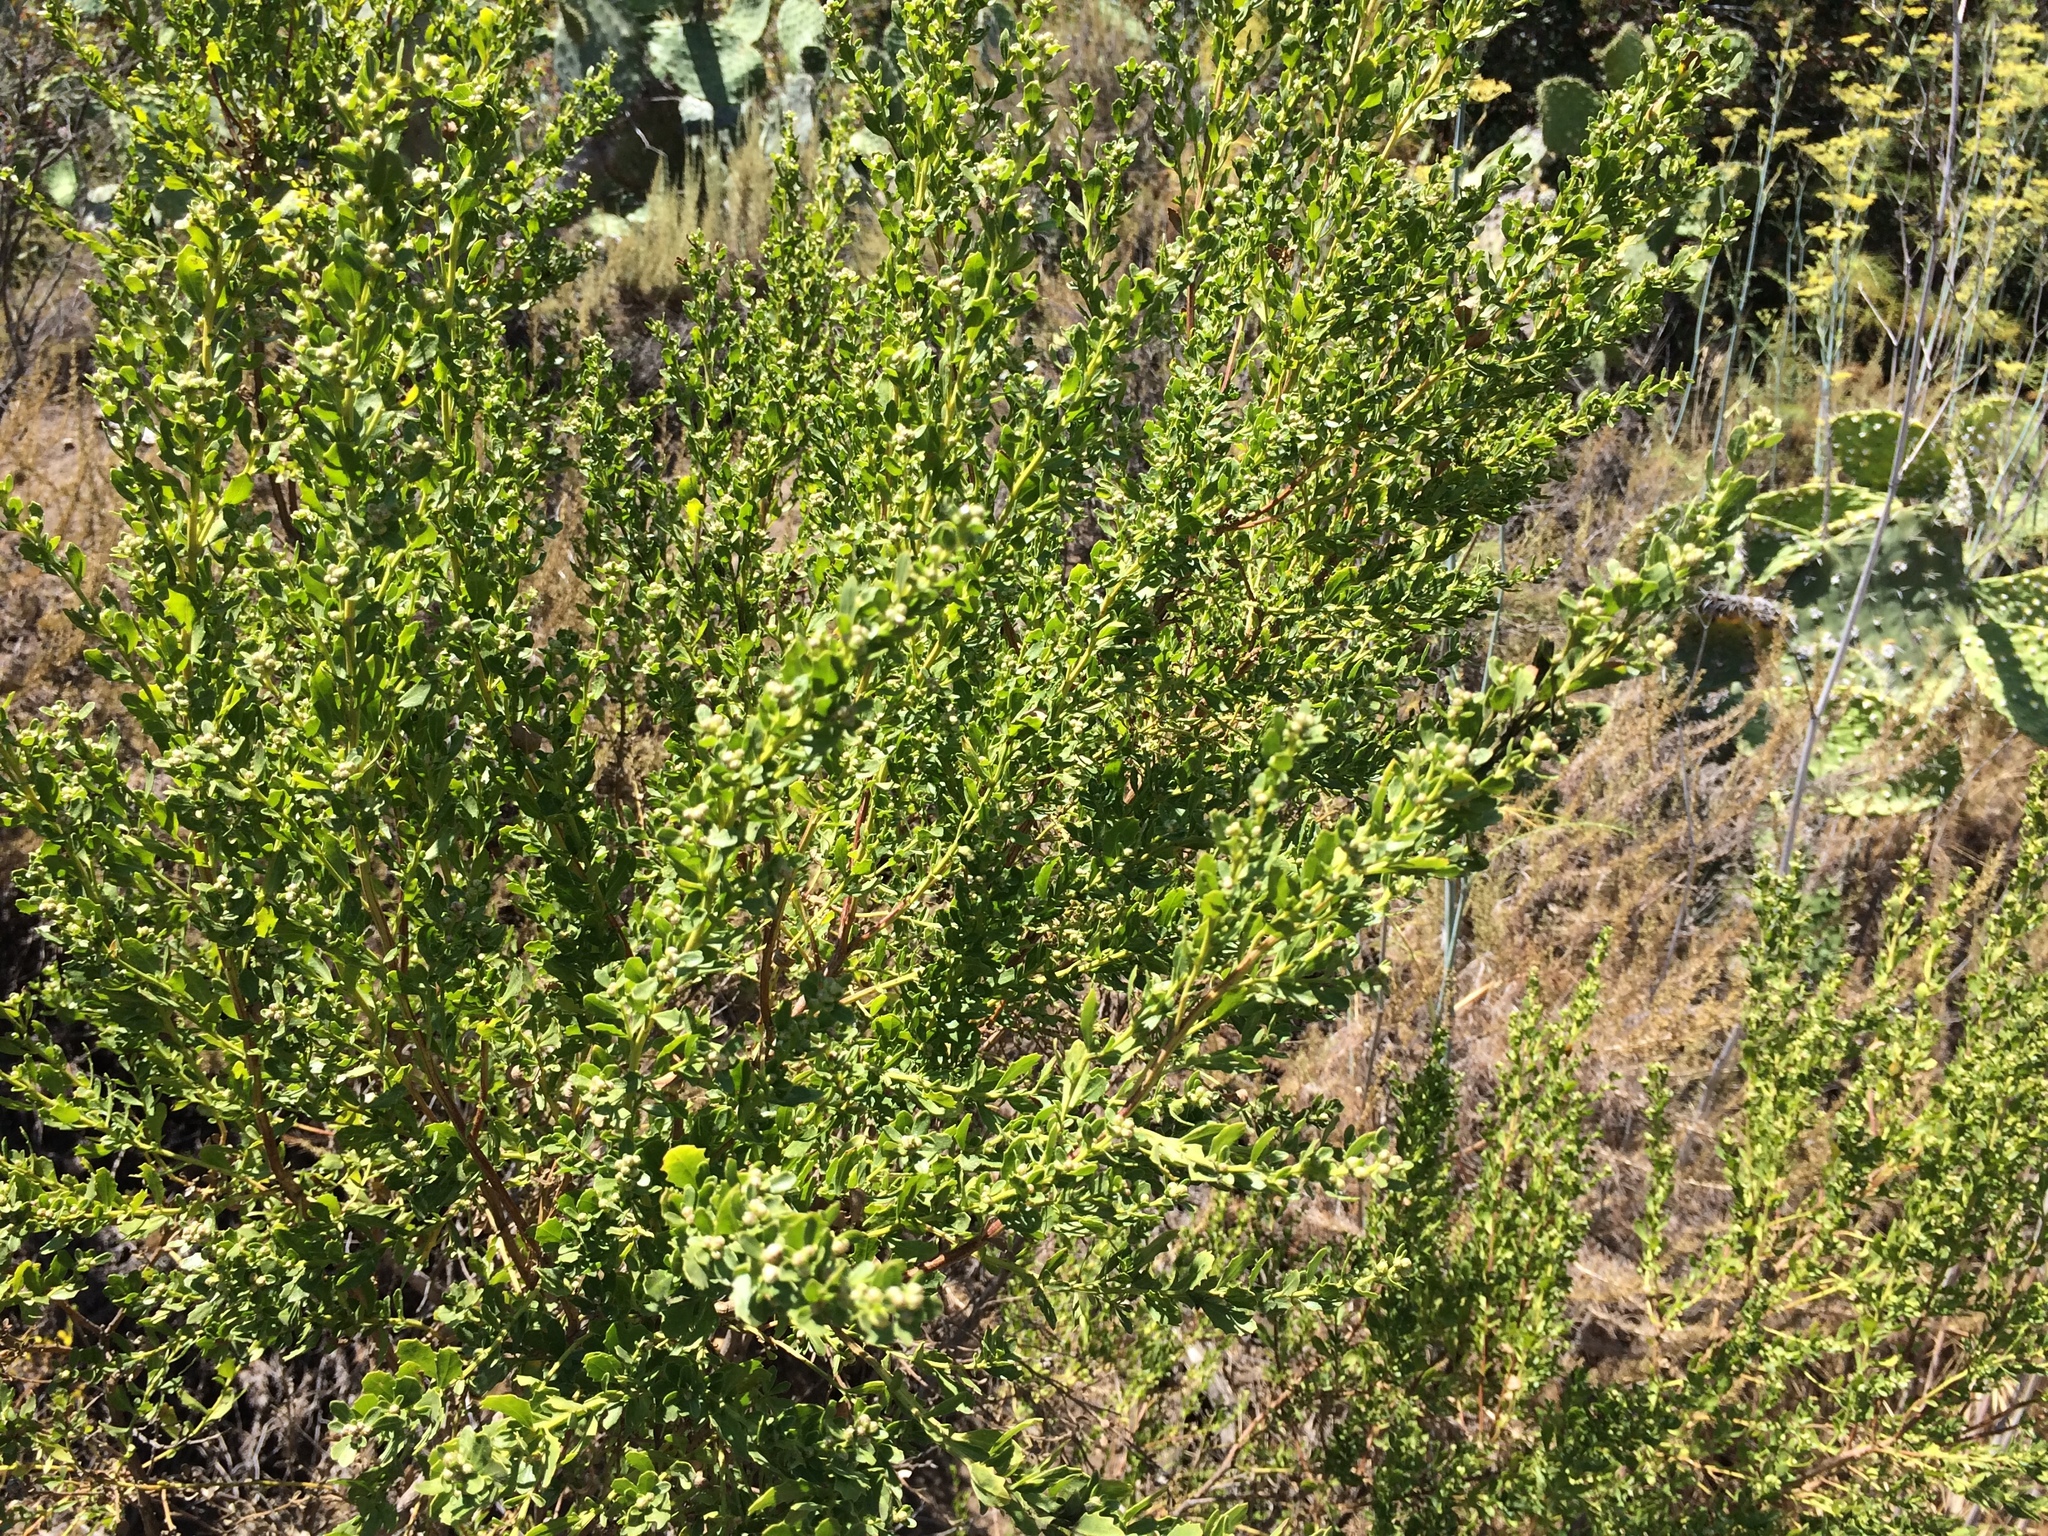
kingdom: Plantae
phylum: Tracheophyta
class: Magnoliopsida
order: Asterales
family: Asteraceae
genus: Baccharis
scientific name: Baccharis pilularis
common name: Coyotebrush
